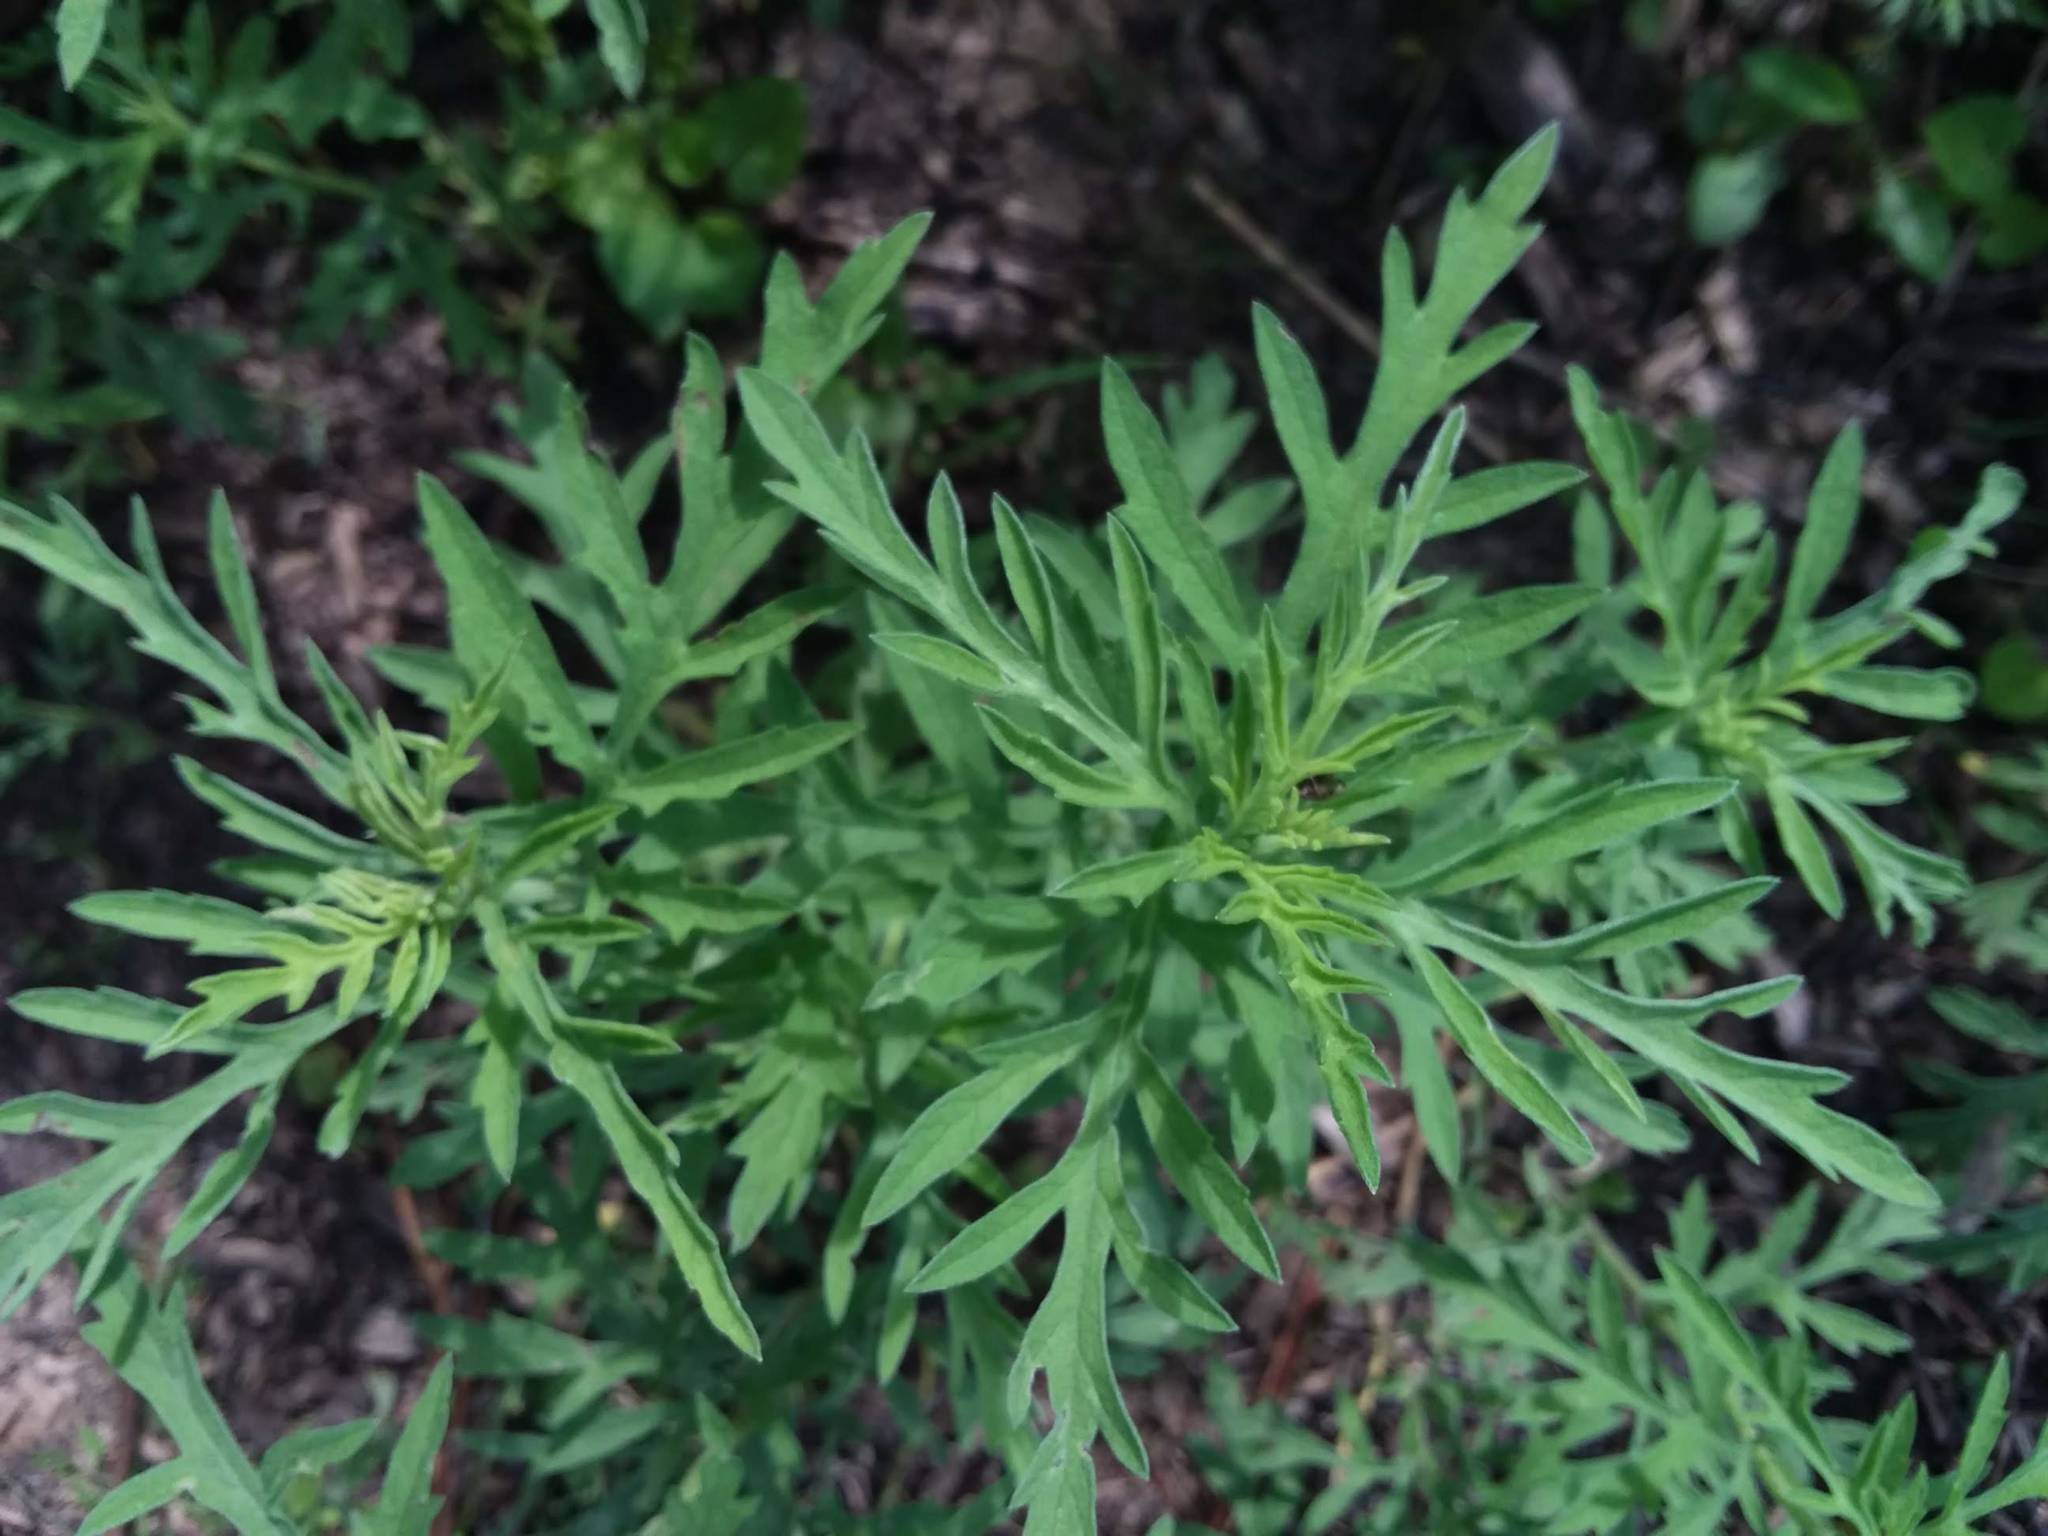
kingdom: Plantae
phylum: Tracheophyta
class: Magnoliopsida
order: Asterales
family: Asteraceae
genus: Ambrosia
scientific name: Ambrosia artemisiifolia
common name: Annual ragweed
